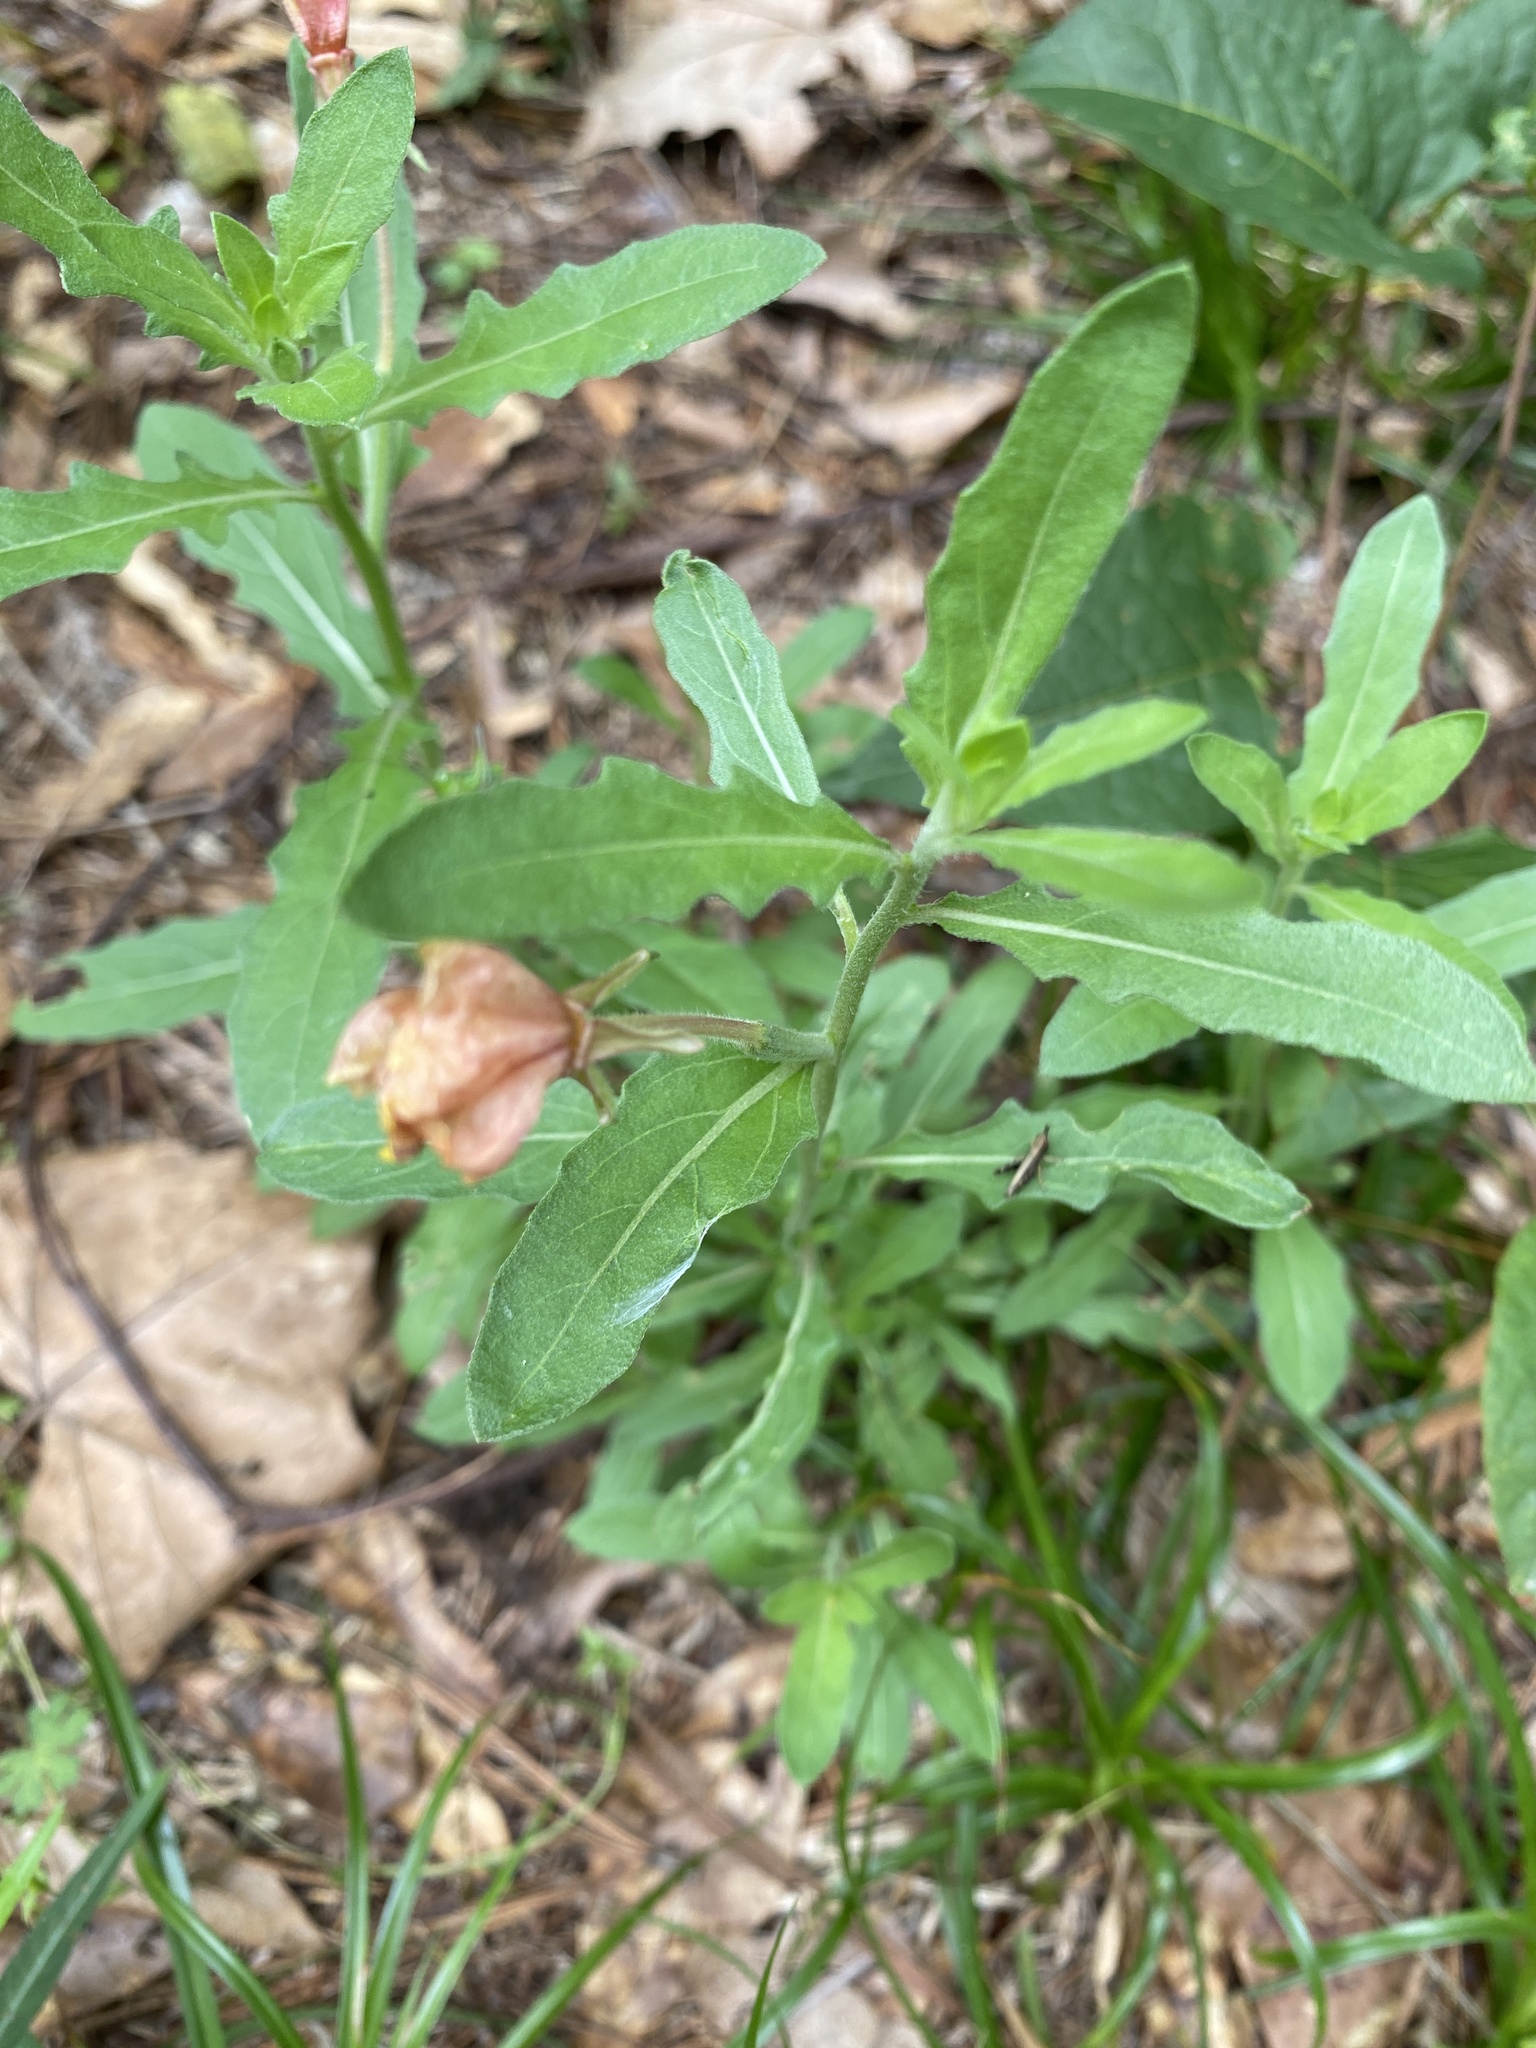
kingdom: Plantae
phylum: Tracheophyta
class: Magnoliopsida
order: Myrtales
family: Onagraceae
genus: Oenothera
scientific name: Oenothera laciniata
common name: Cut-leaved evening-primrose
